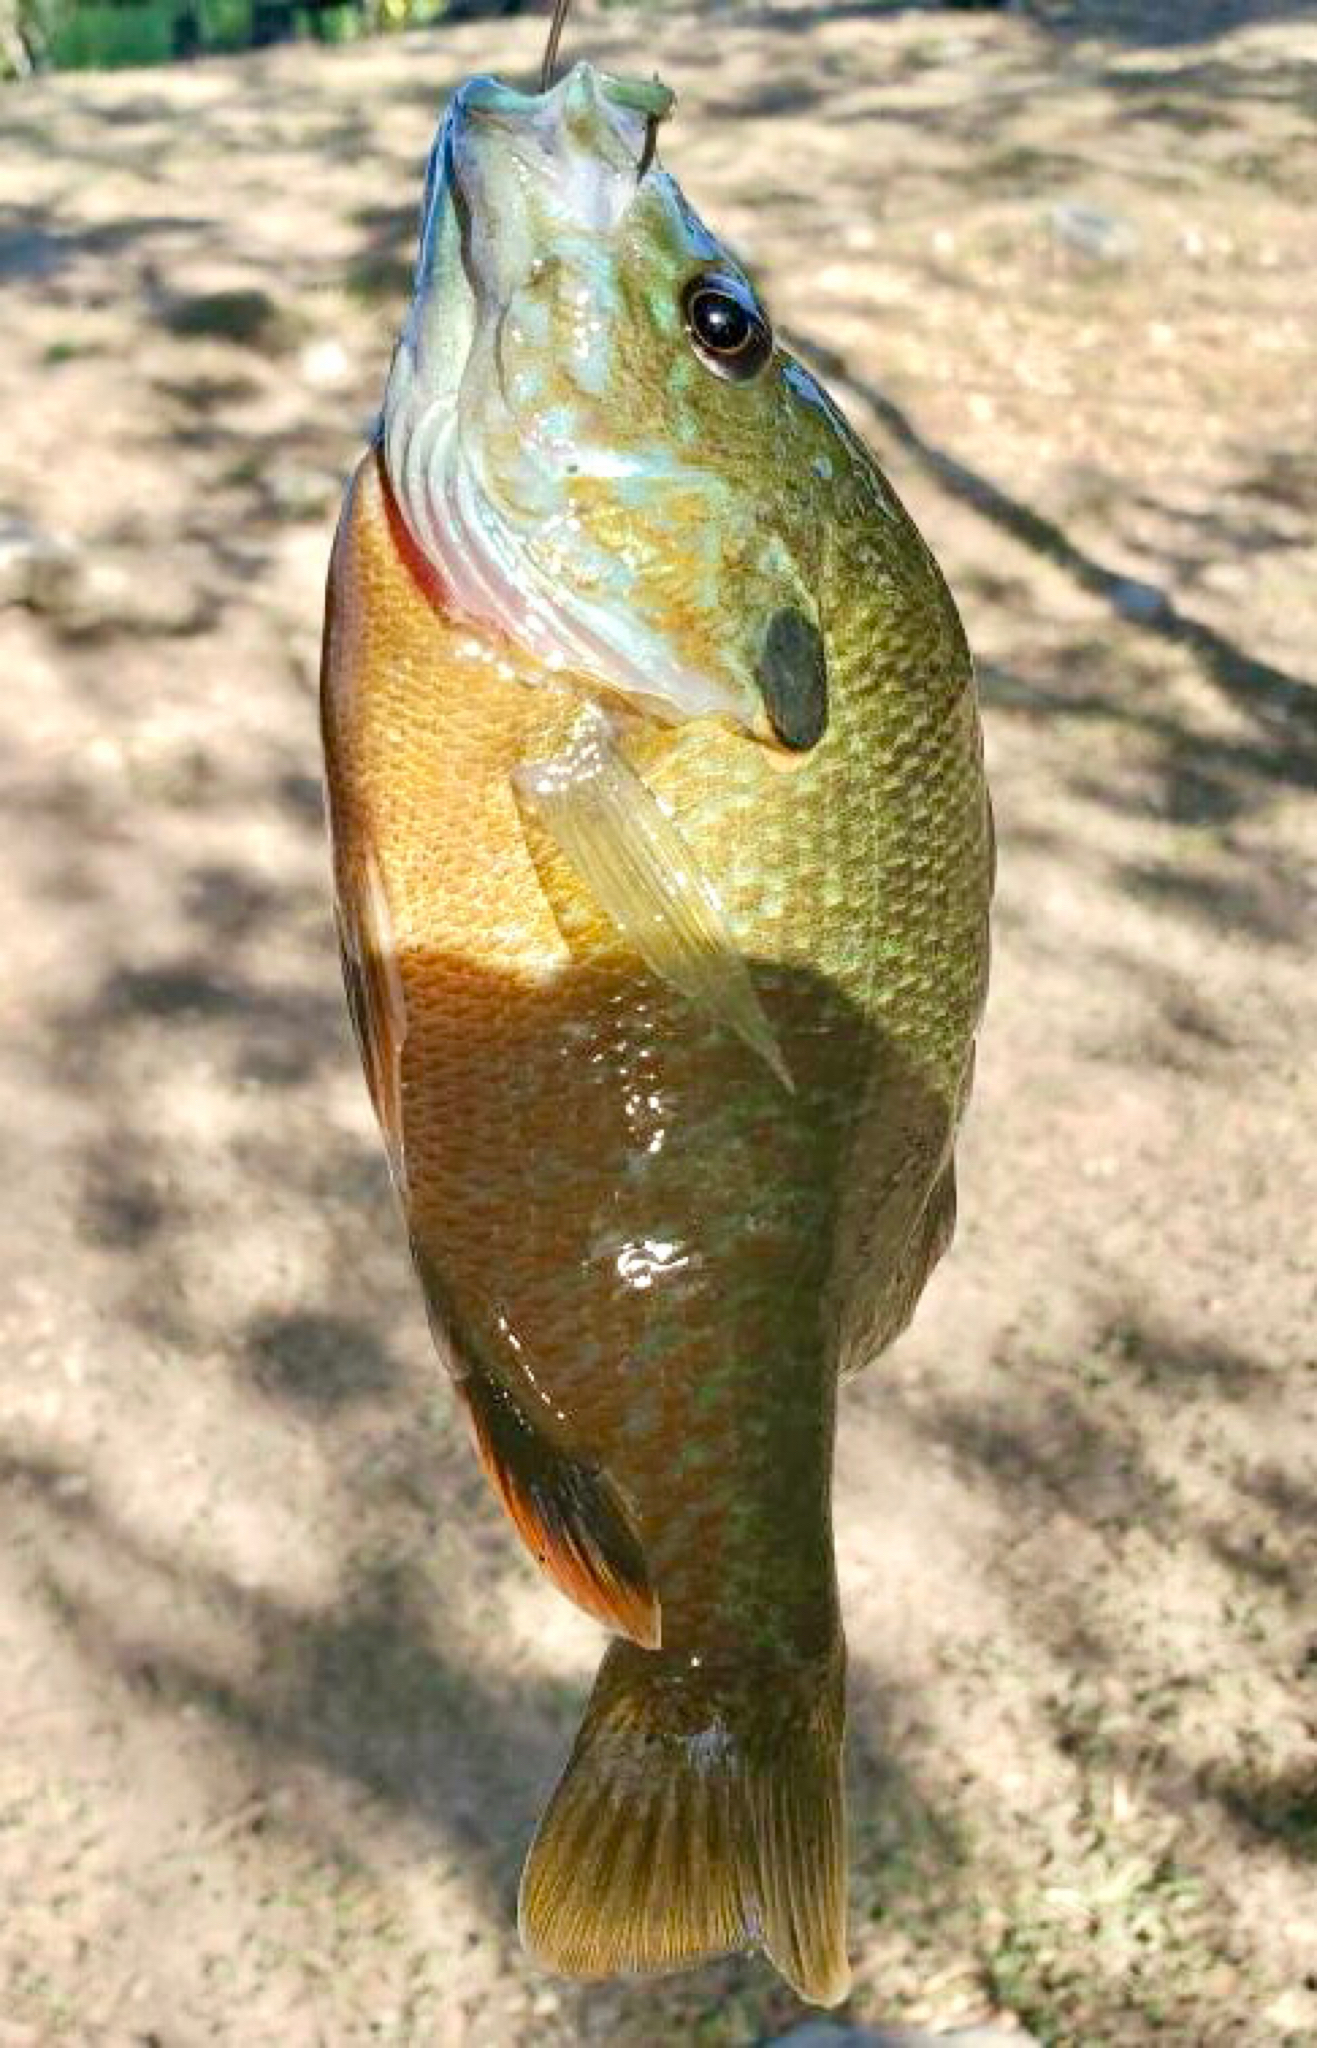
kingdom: Animalia
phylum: Chordata
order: Perciformes
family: Centrarchidae
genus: Lepomis
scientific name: Lepomis
